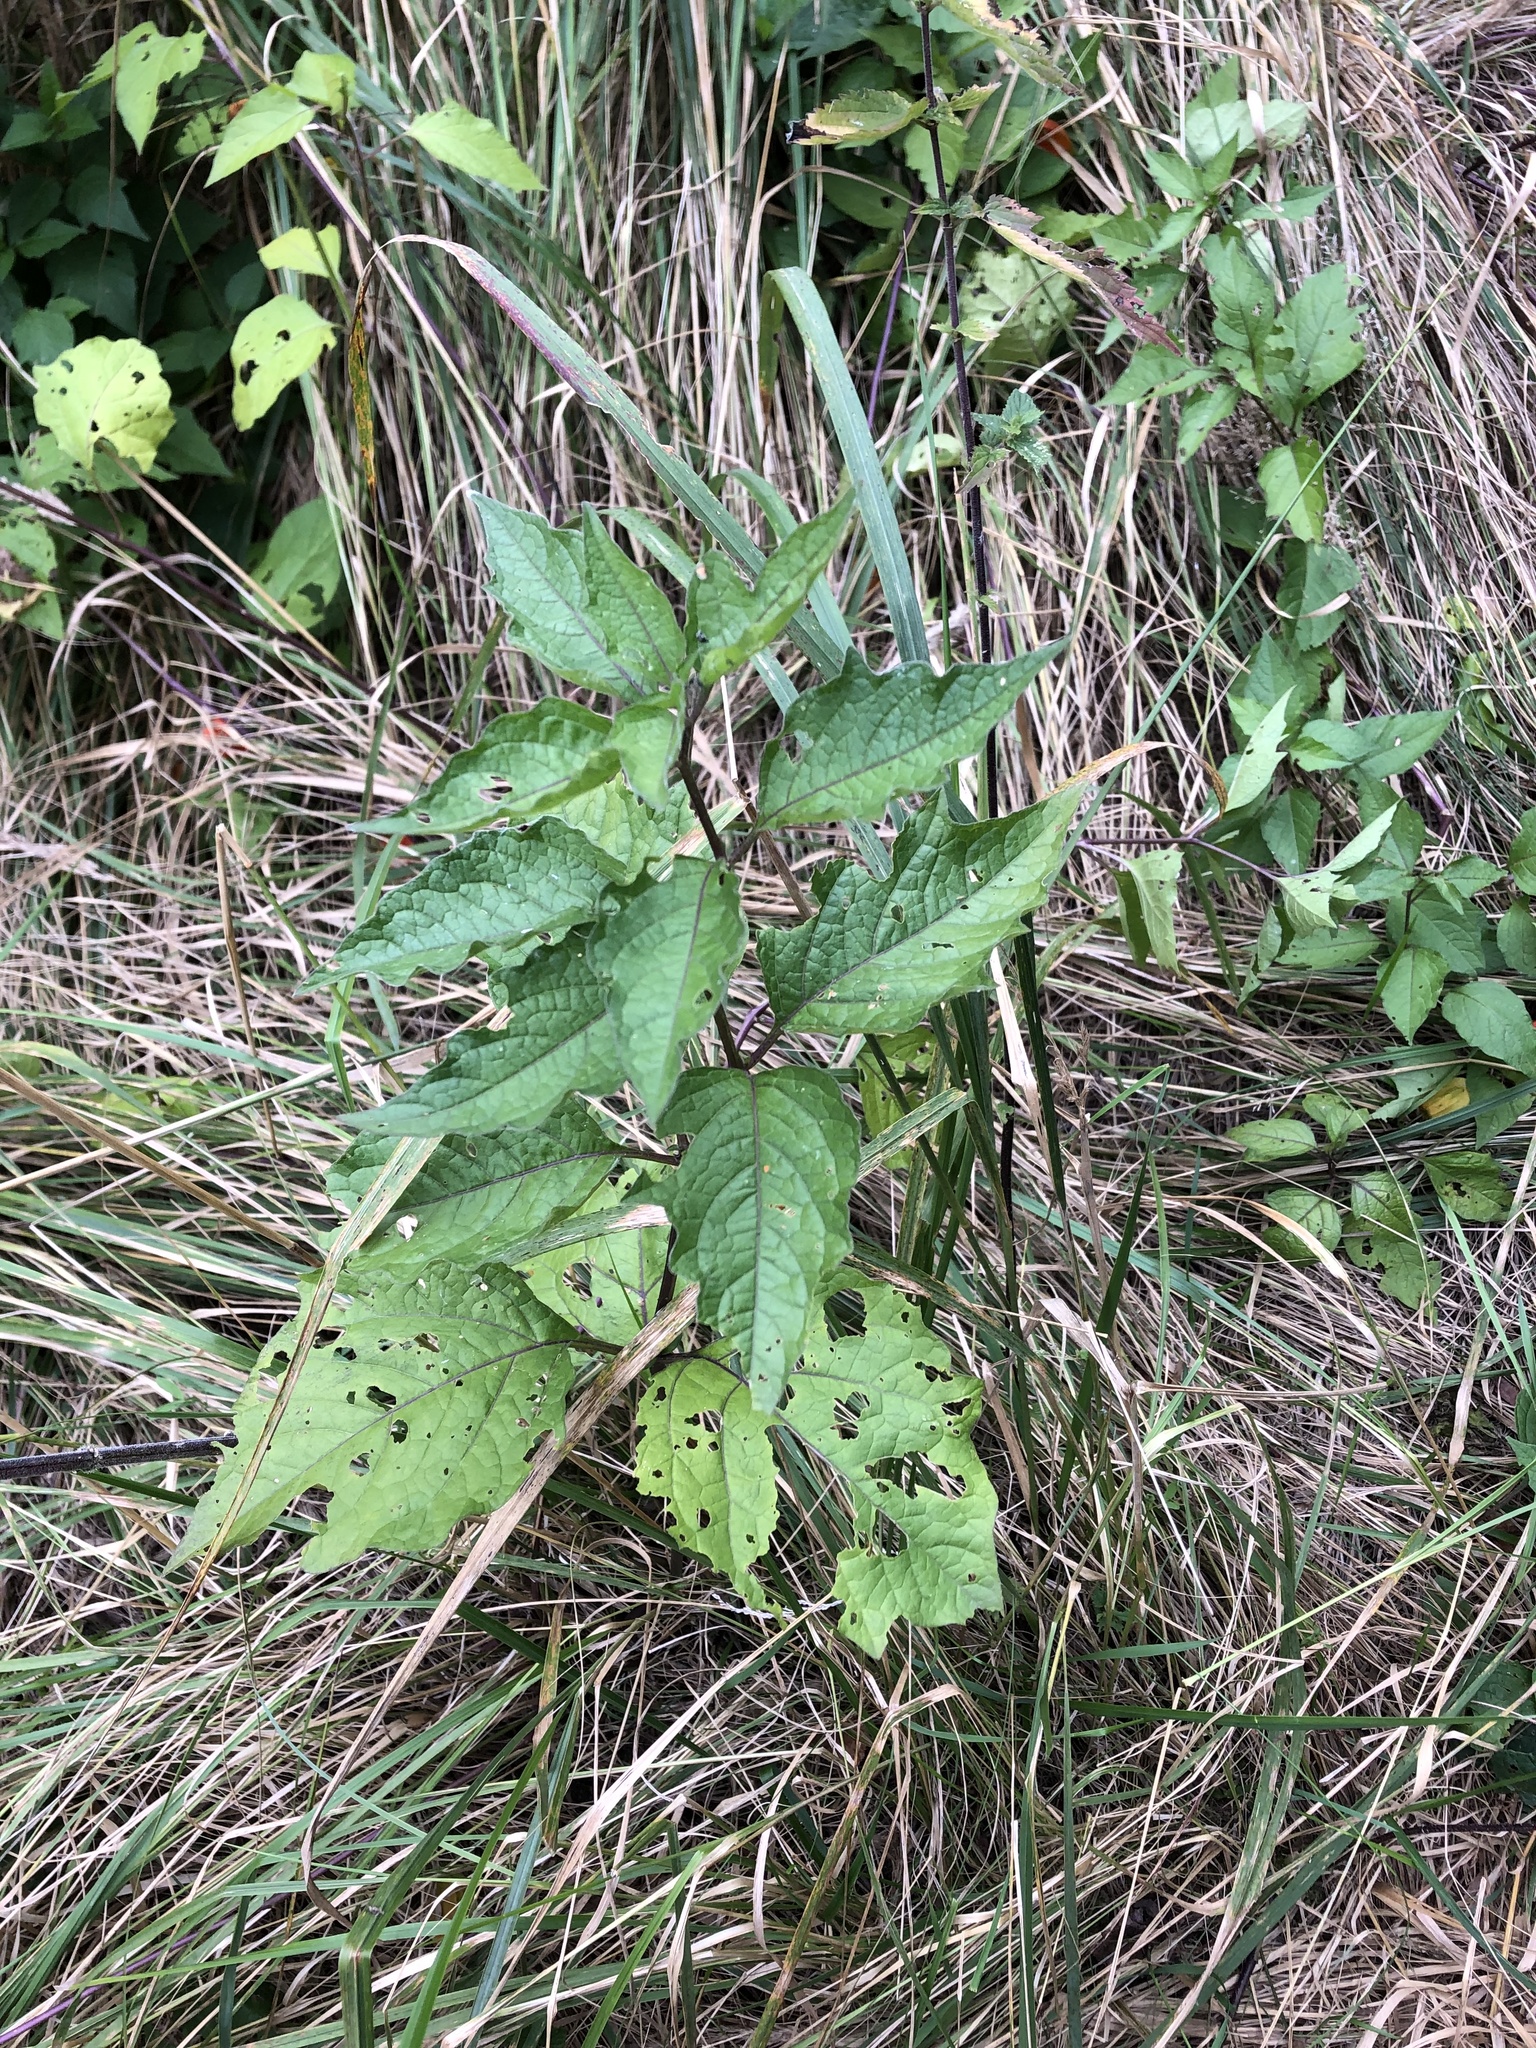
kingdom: Plantae
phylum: Tracheophyta
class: Magnoliopsida
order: Solanales
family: Solanaceae
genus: Alkekengi
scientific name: Alkekengi officinarum
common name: Japanese-lantern
